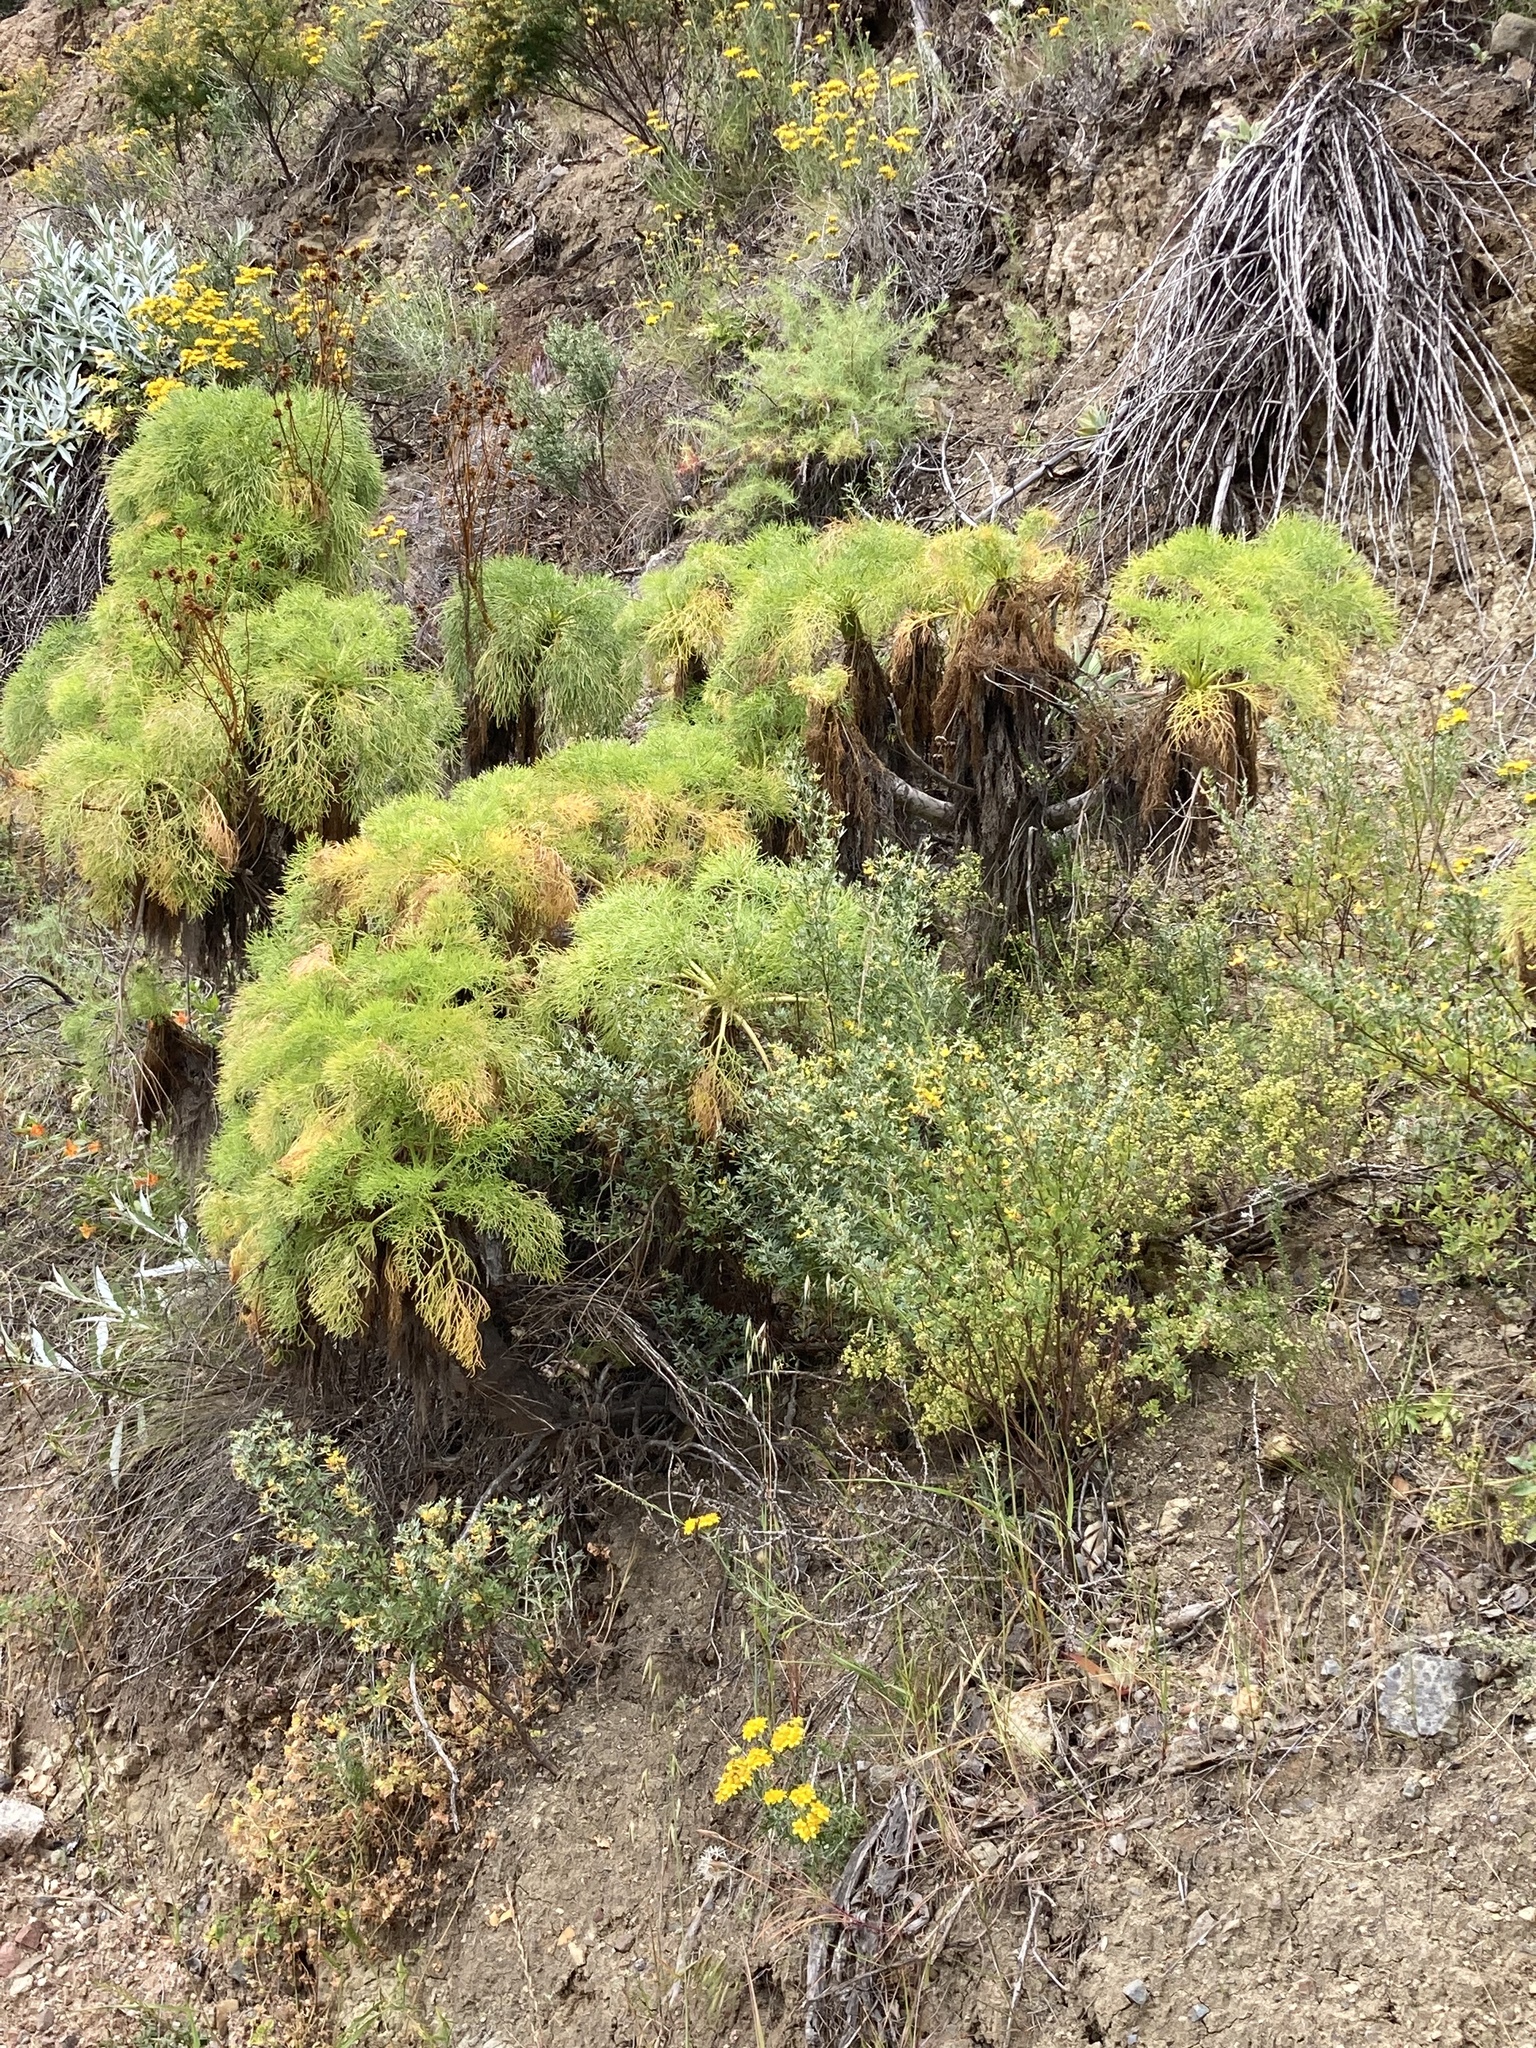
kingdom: Plantae
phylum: Tracheophyta
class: Magnoliopsida
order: Asterales
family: Asteraceae
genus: Coreopsis
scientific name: Coreopsis gigantea
